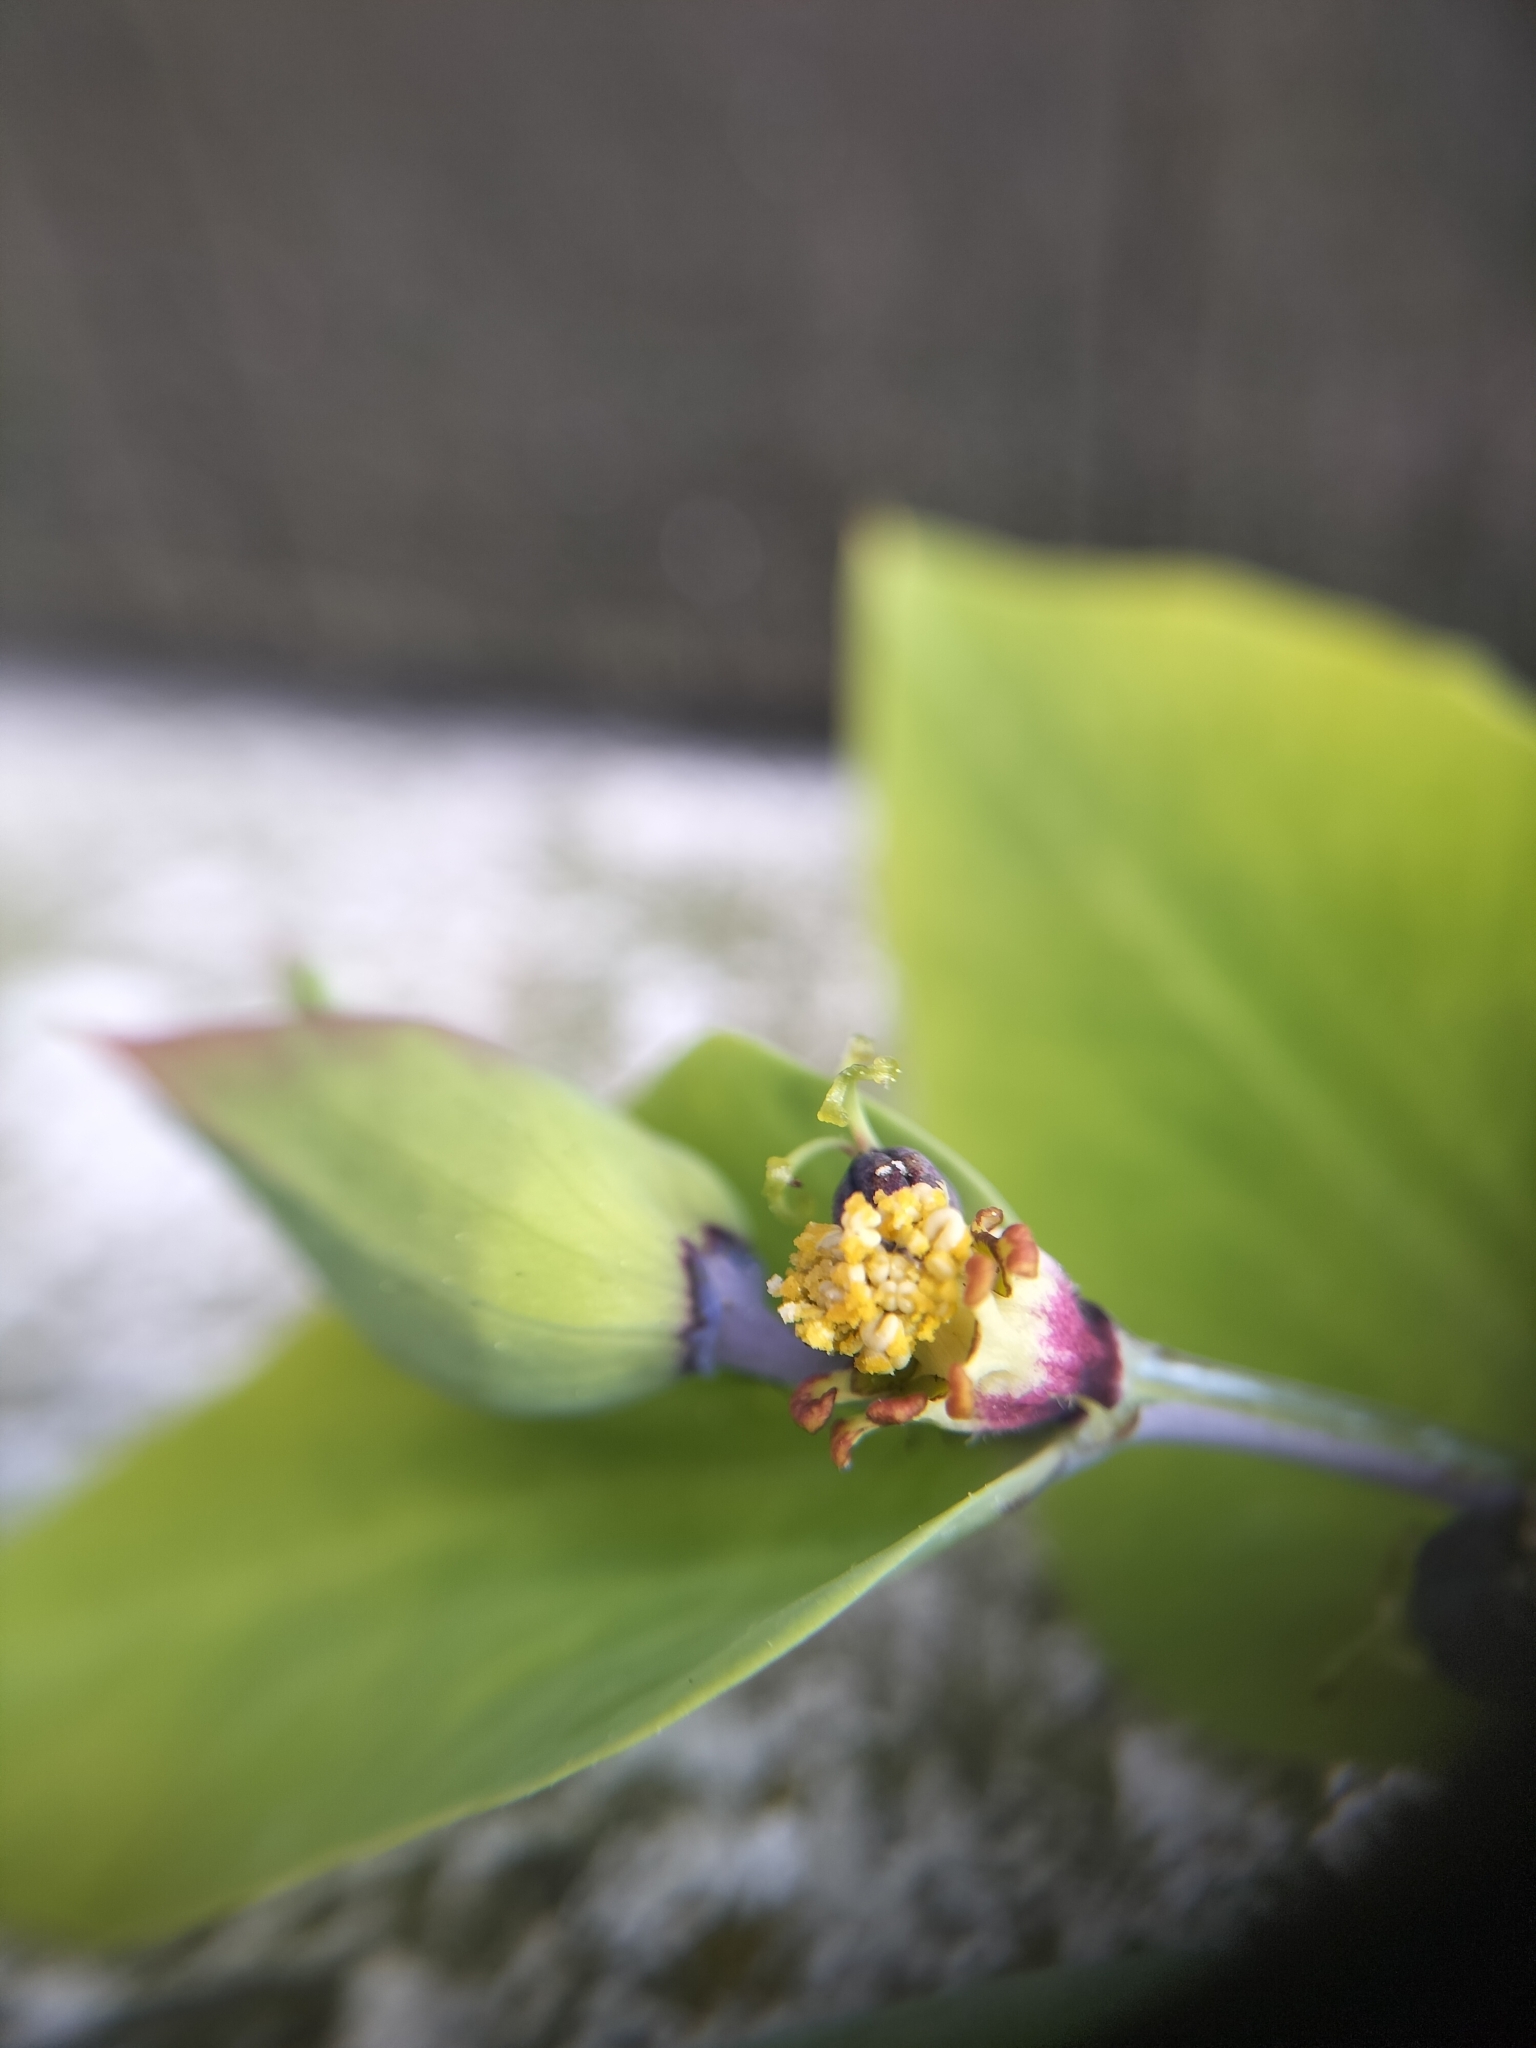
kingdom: Plantae
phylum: Tracheophyta
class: Magnoliopsida
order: Malpighiales
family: Euphorbiaceae
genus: Euphorbia
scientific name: Euphorbia lathyris
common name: Caper spurge
